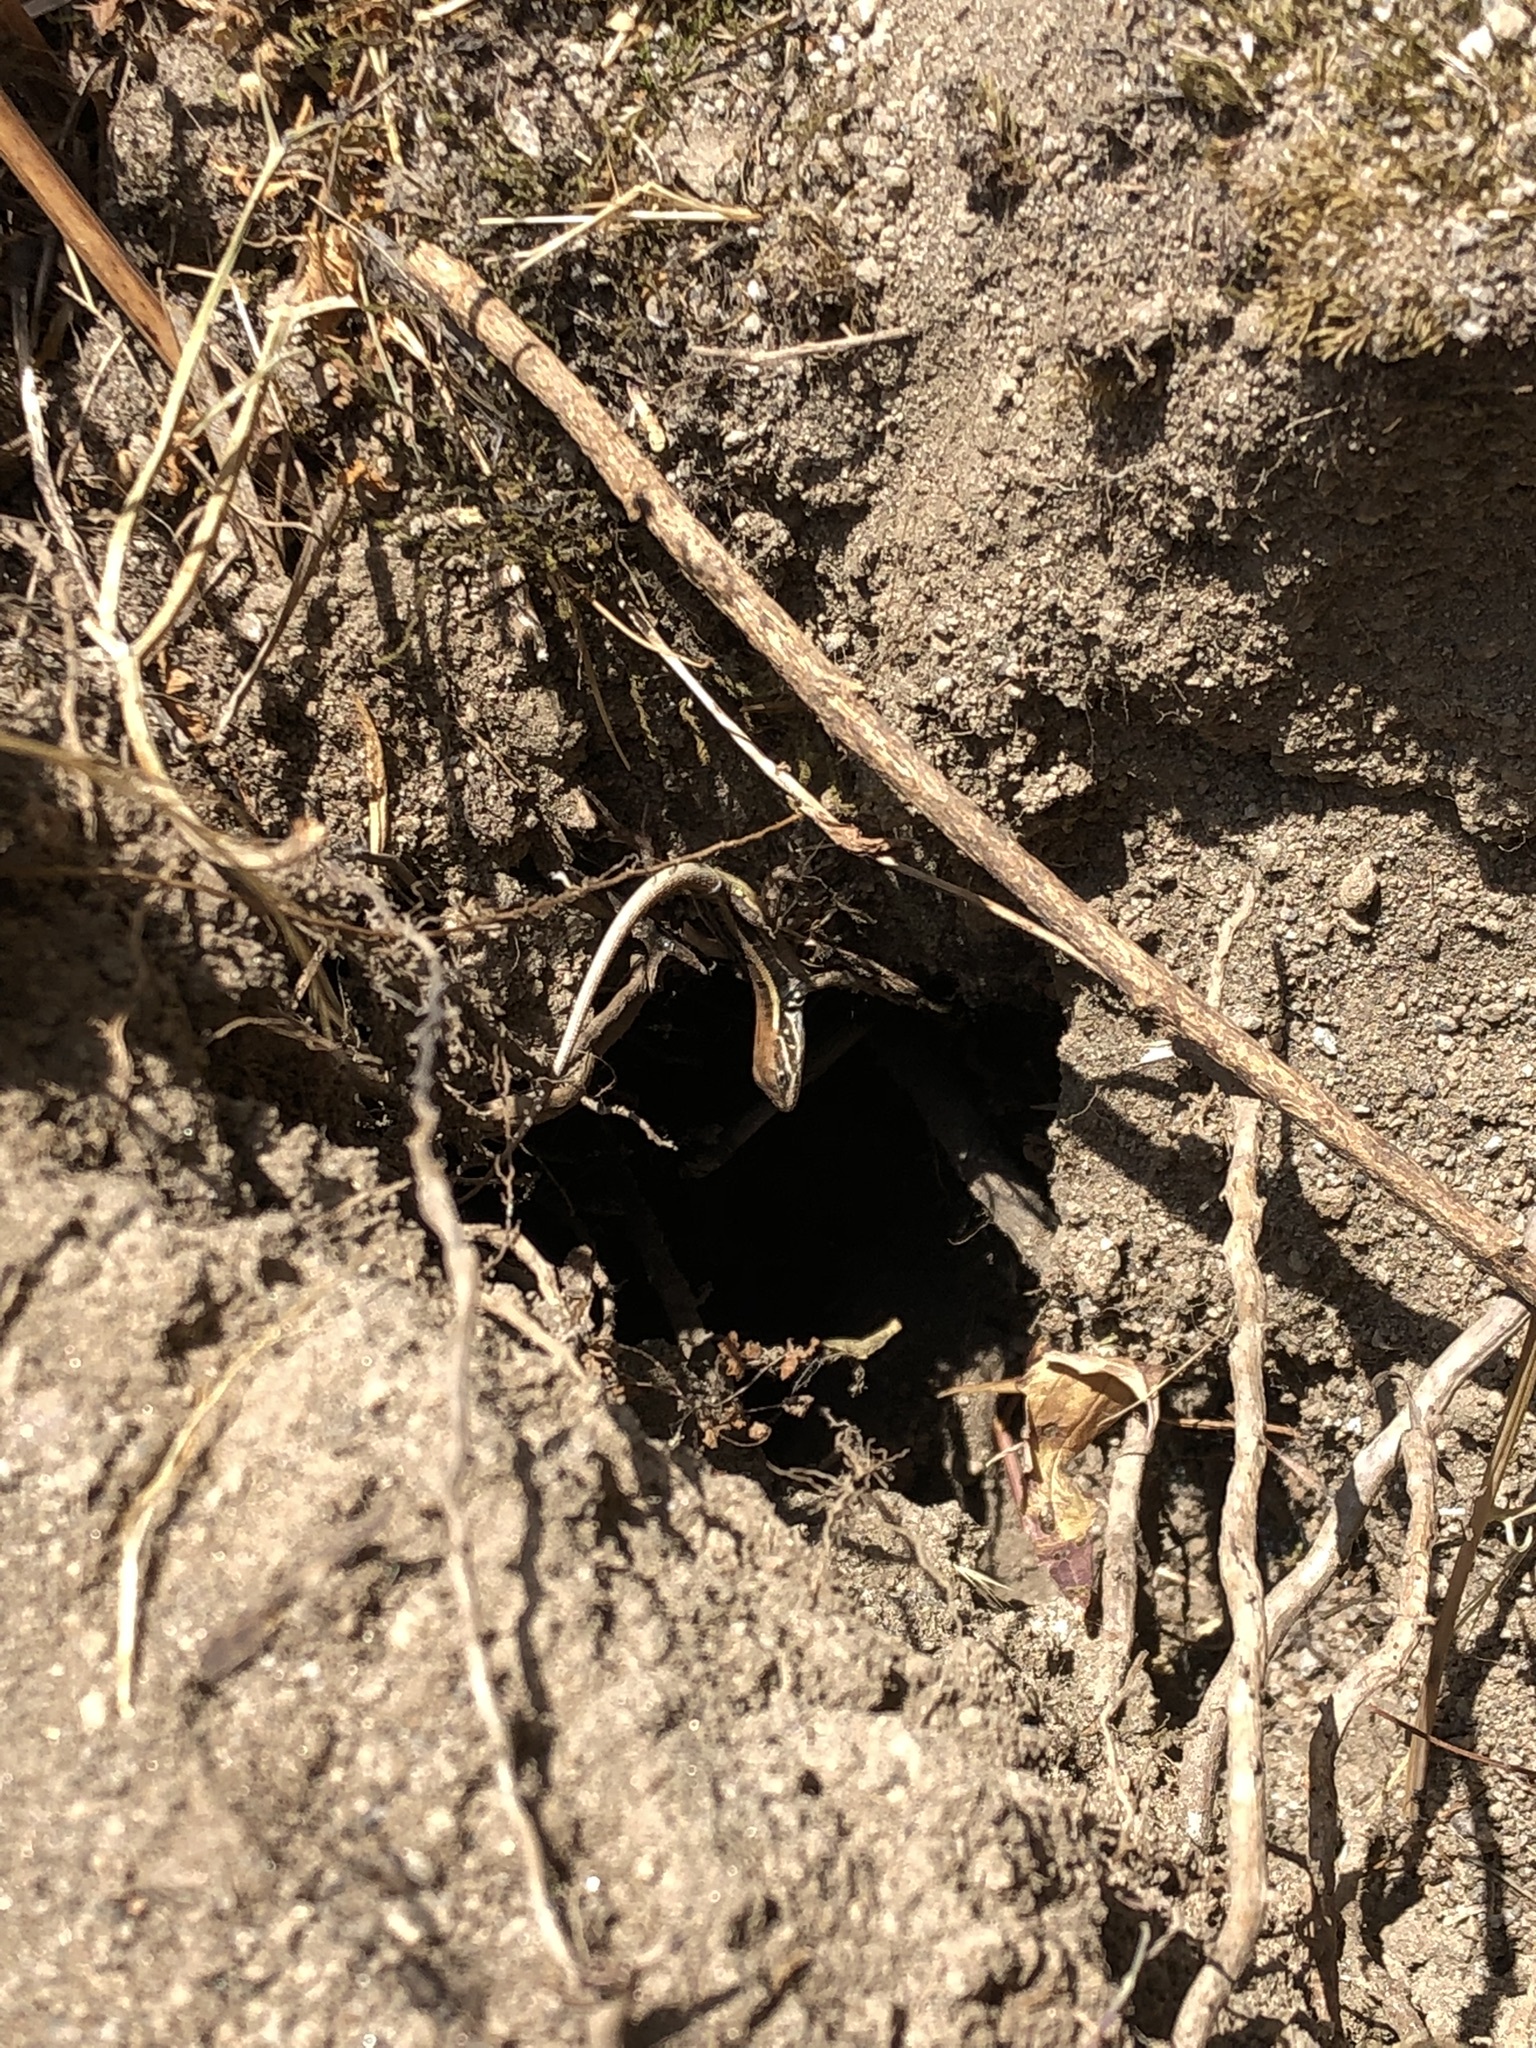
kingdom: Animalia
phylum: Chordata
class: Squamata
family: Tropiduridae
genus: Stenocercus
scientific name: Stenocercus ornatissimus
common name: Lesser ornate whorltail iguana
